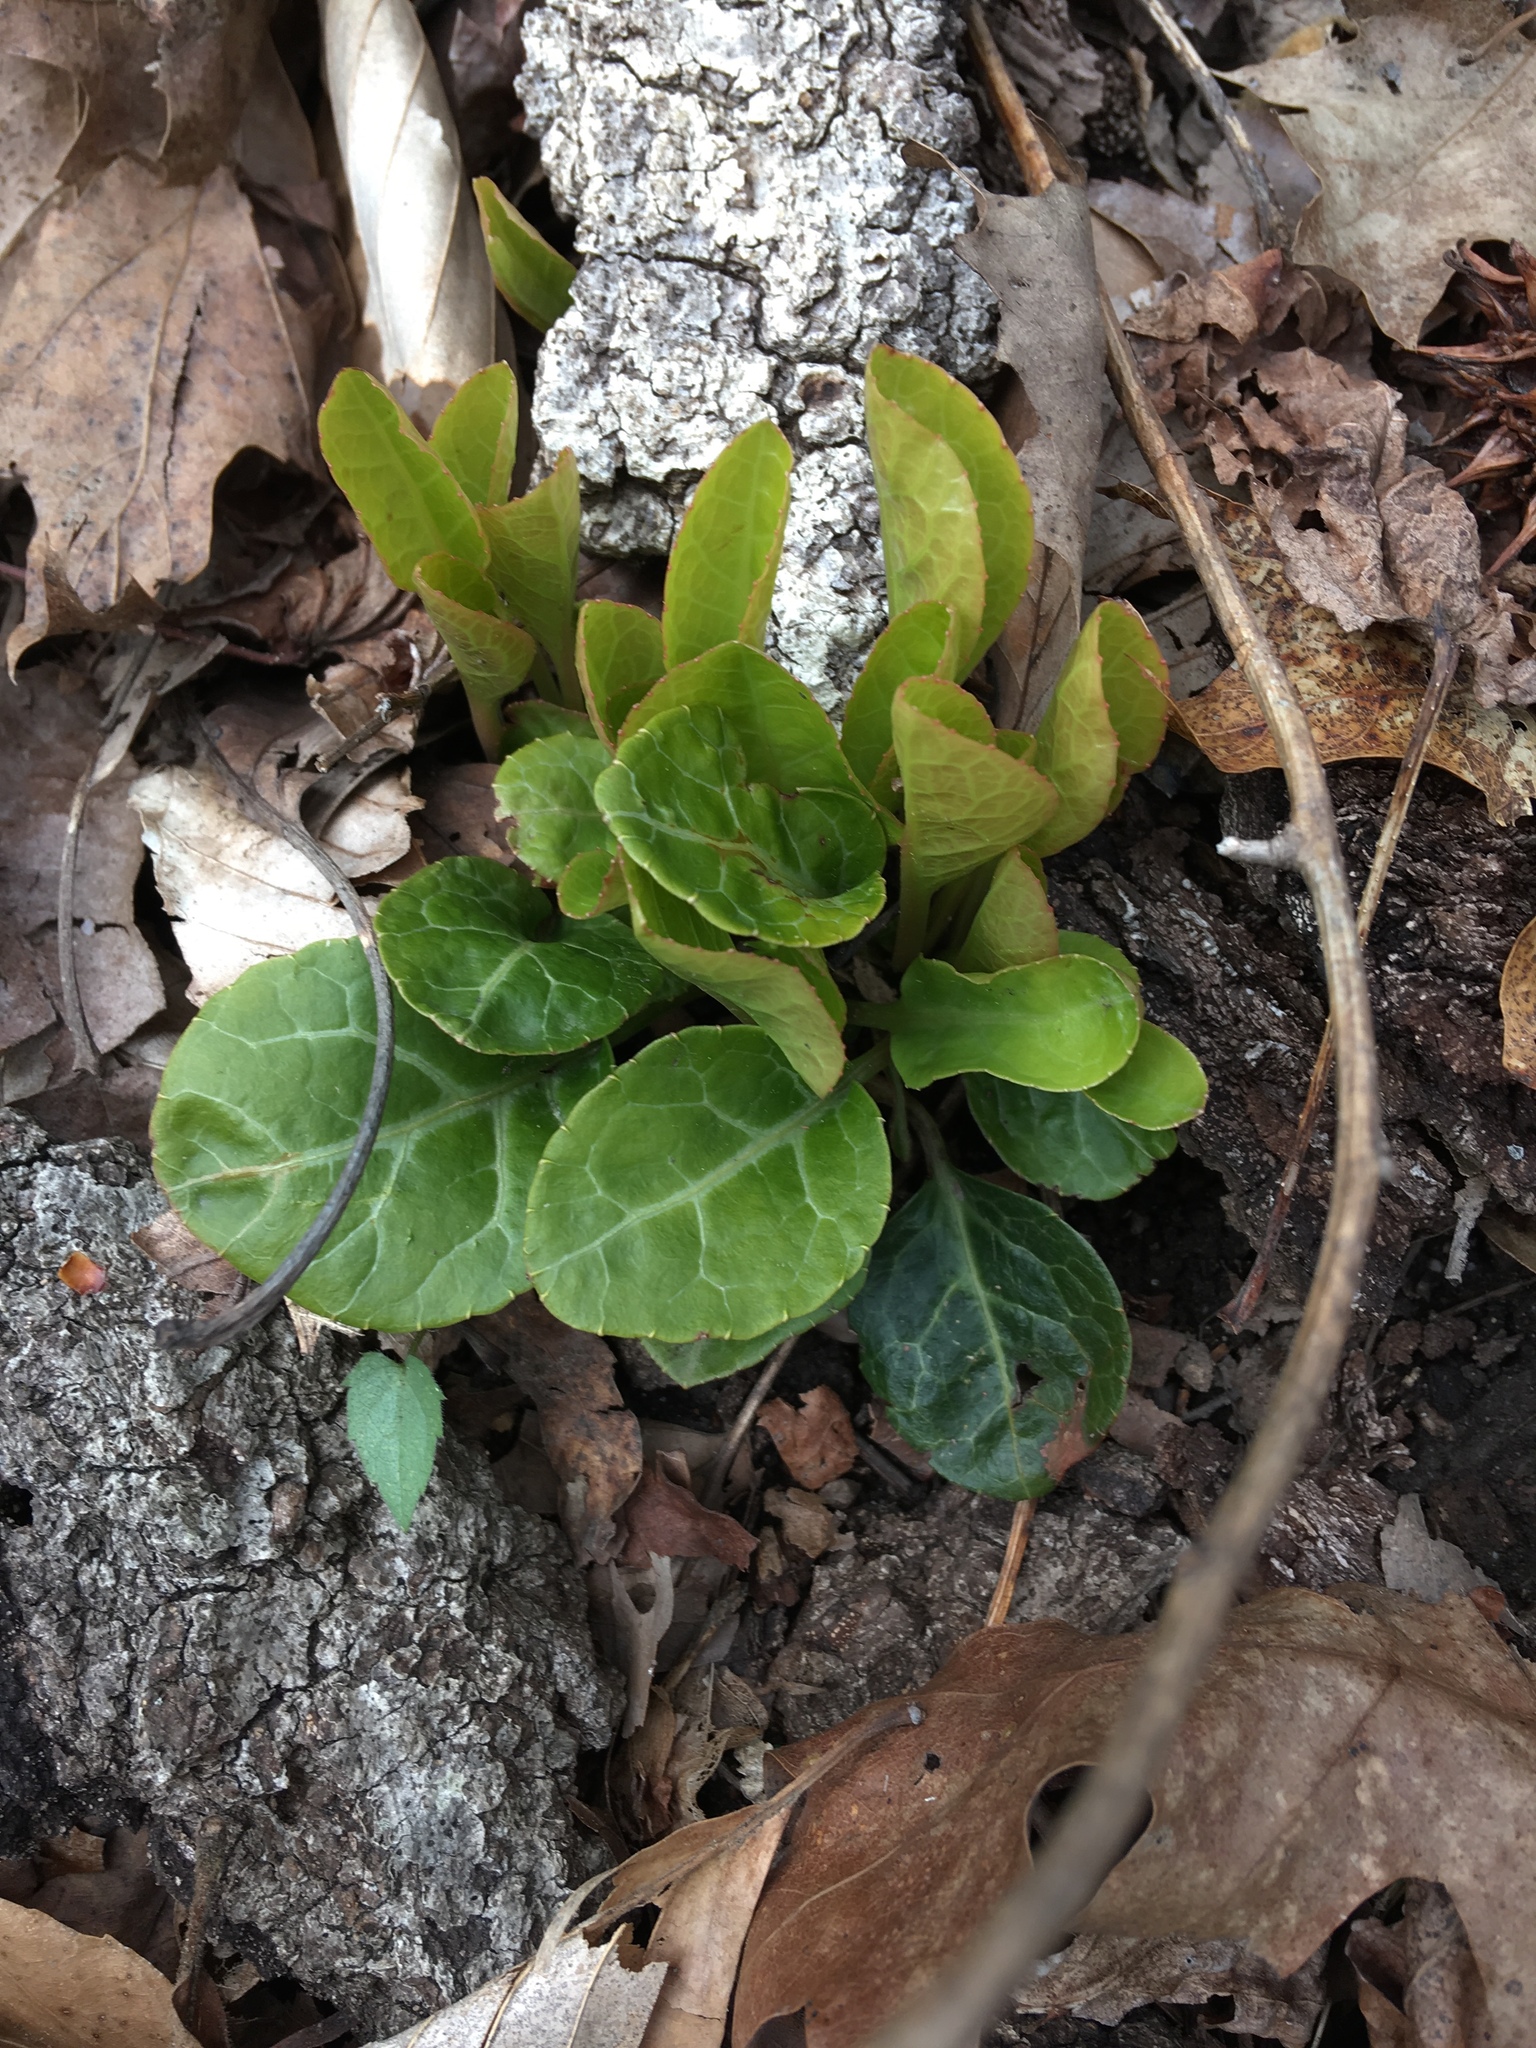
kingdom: Plantae
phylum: Tracheophyta
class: Magnoliopsida
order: Ericales
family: Ericaceae
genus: Pyrola
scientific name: Pyrola americana
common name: American wintergreen
